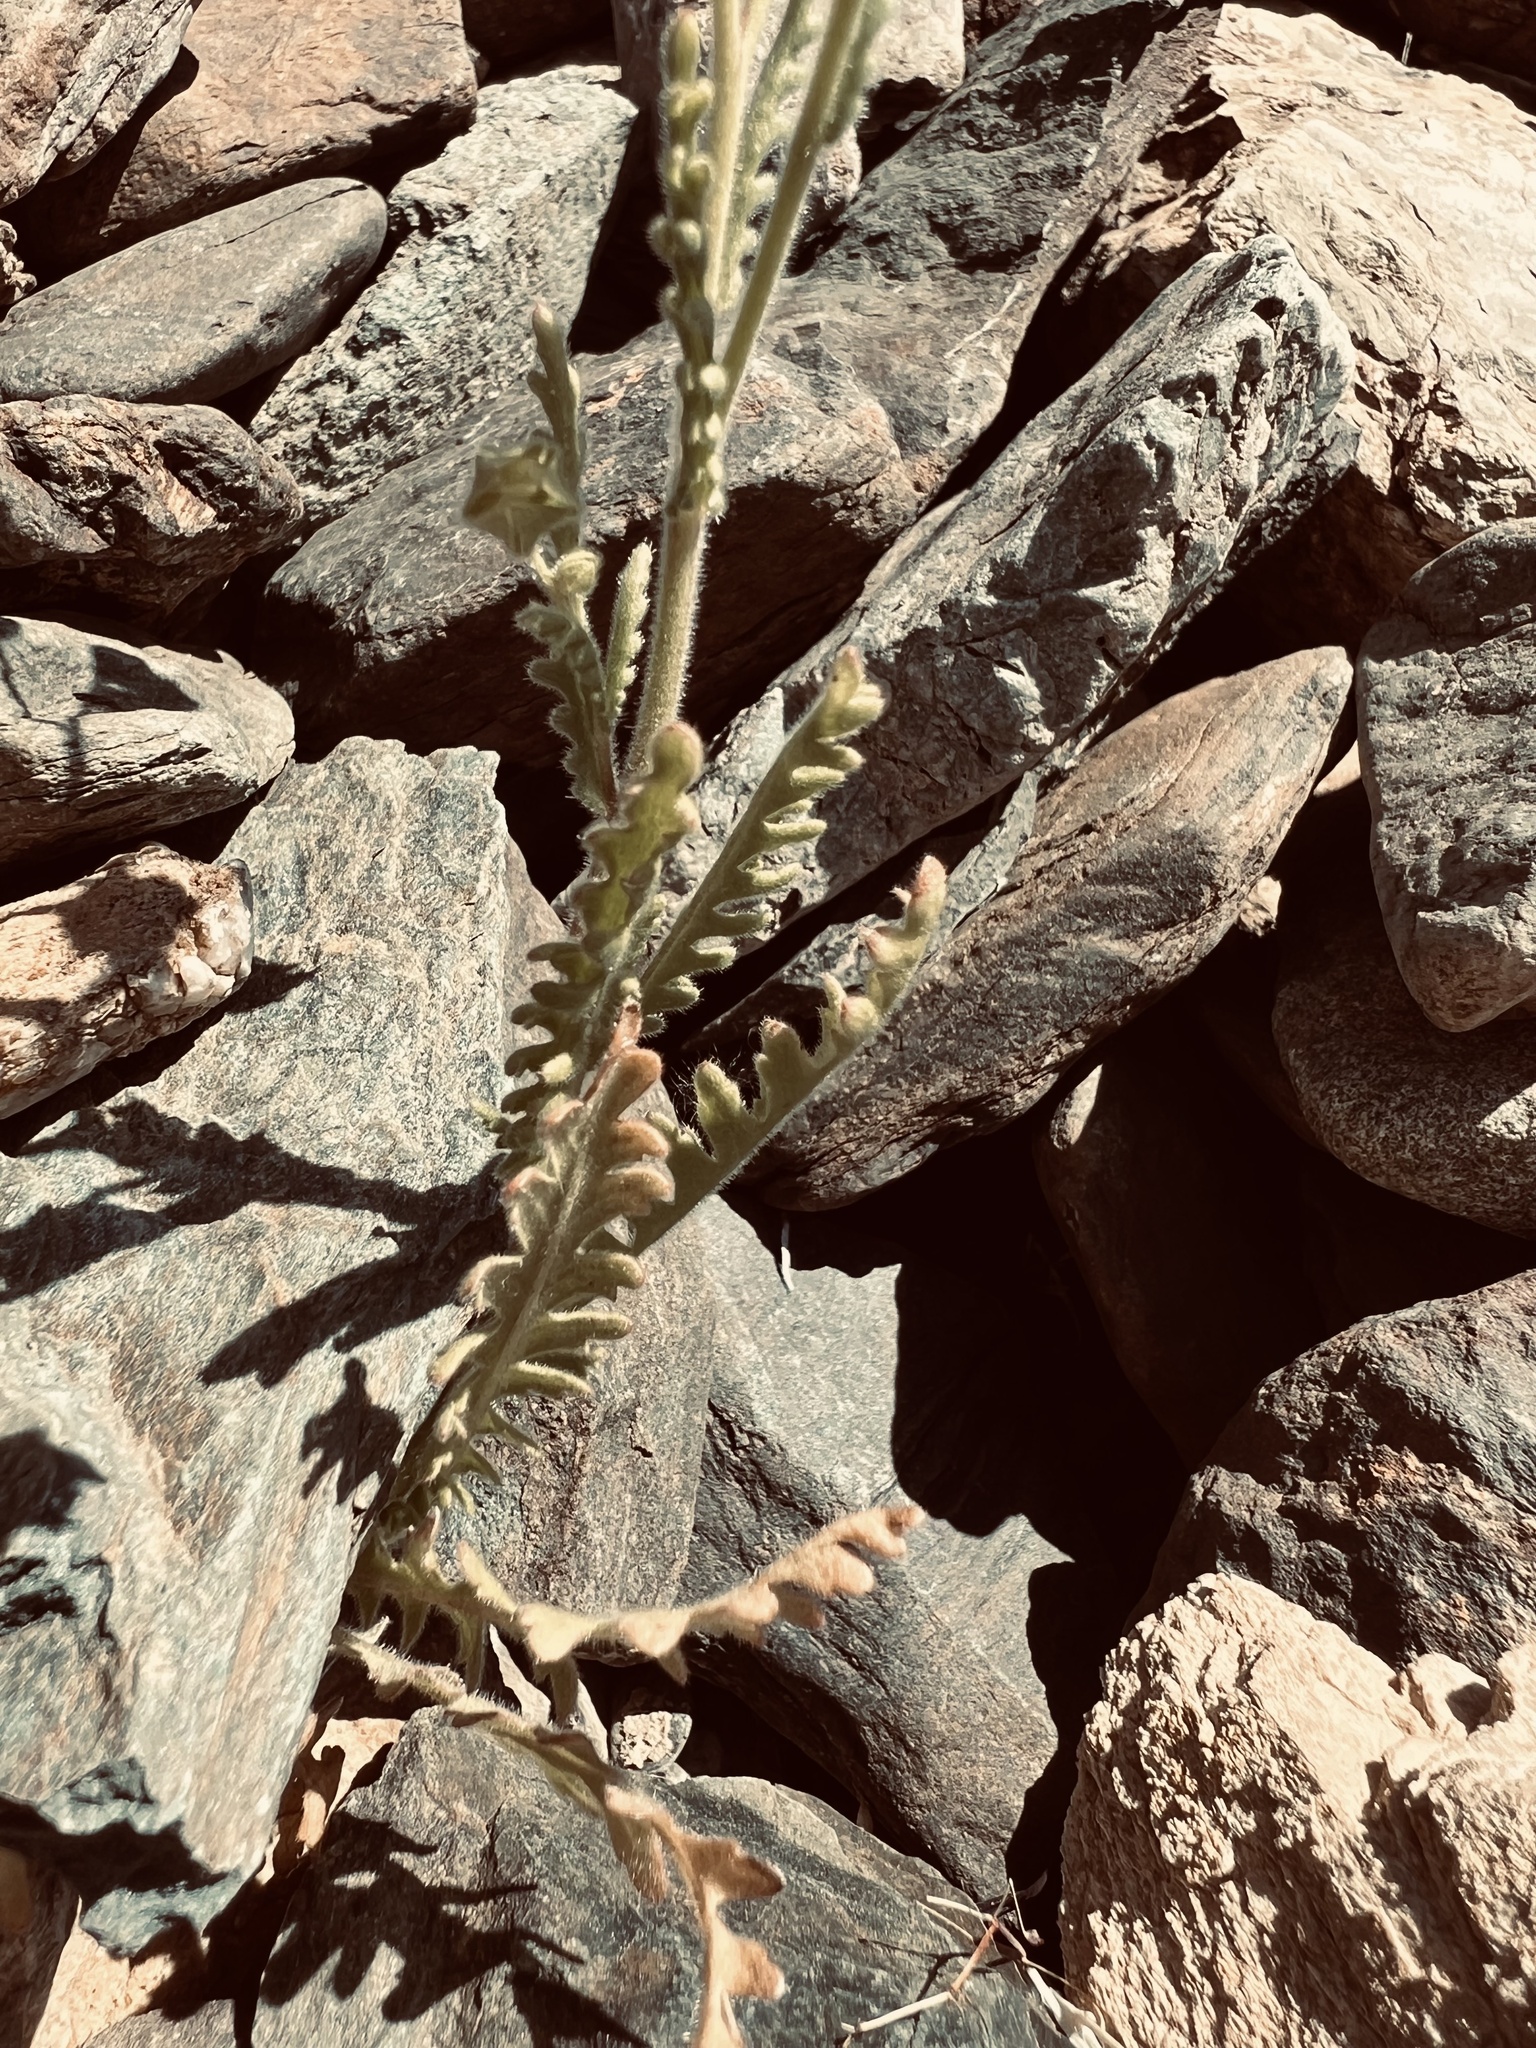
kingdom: Plantae
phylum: Tracheophyta
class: Magnoliopsida
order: Boraginales
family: Hydrophyllaceae
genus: Emmenanthe
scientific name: Emmenanthe penduliflora
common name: Whispering-bells
